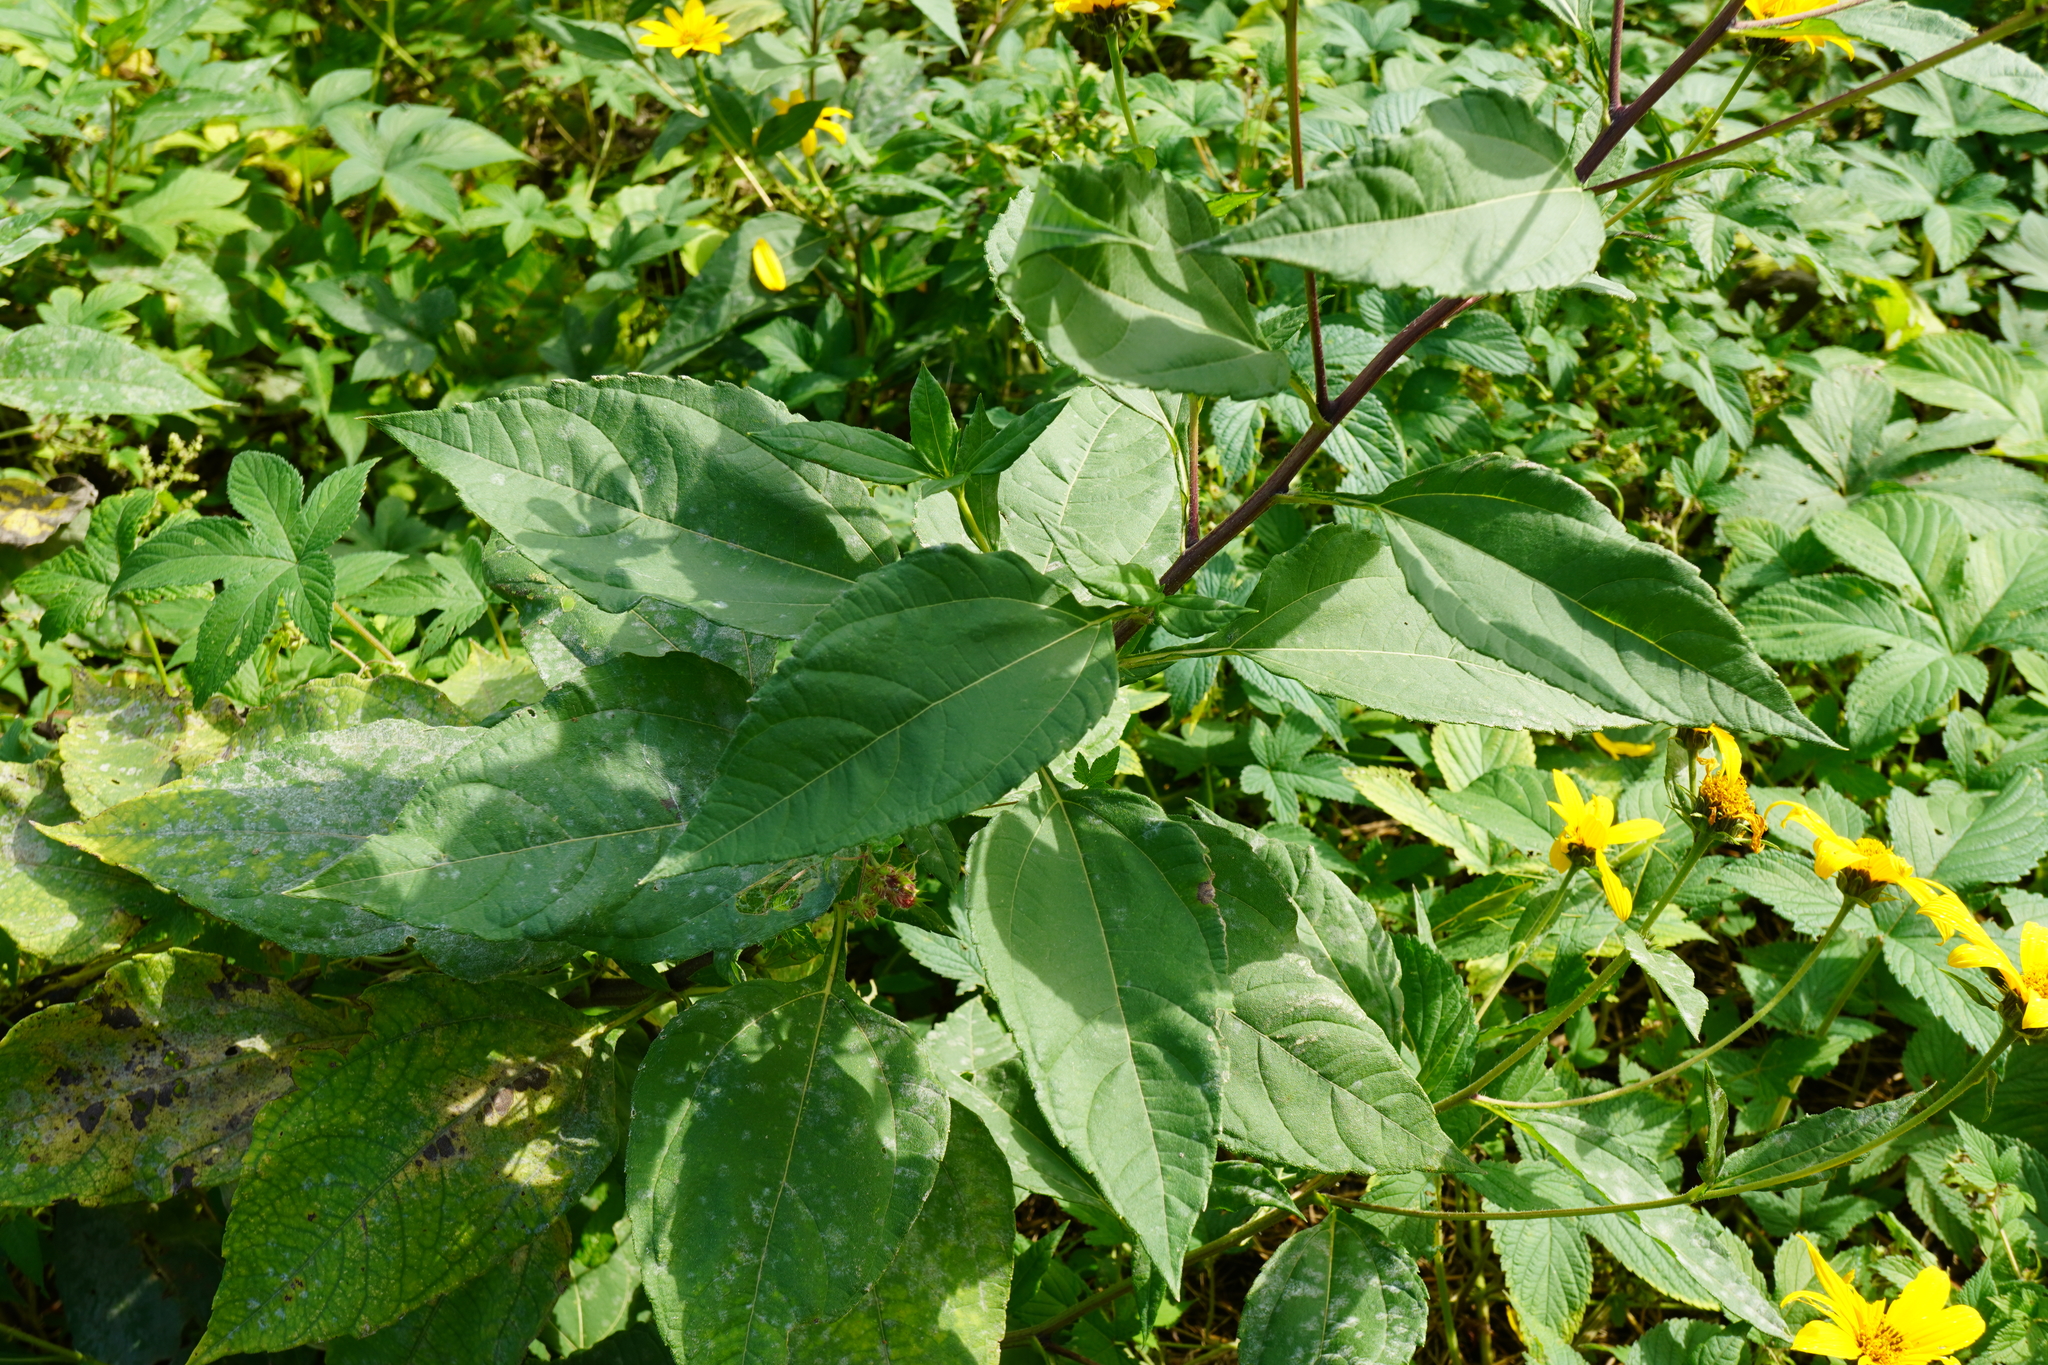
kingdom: Plantae
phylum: Tracheophyta
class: Magnoliopsida
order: Asterales
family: Asteraceae
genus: Helianthus
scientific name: Helianthus tuberosus
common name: Jerusalem artichoke
